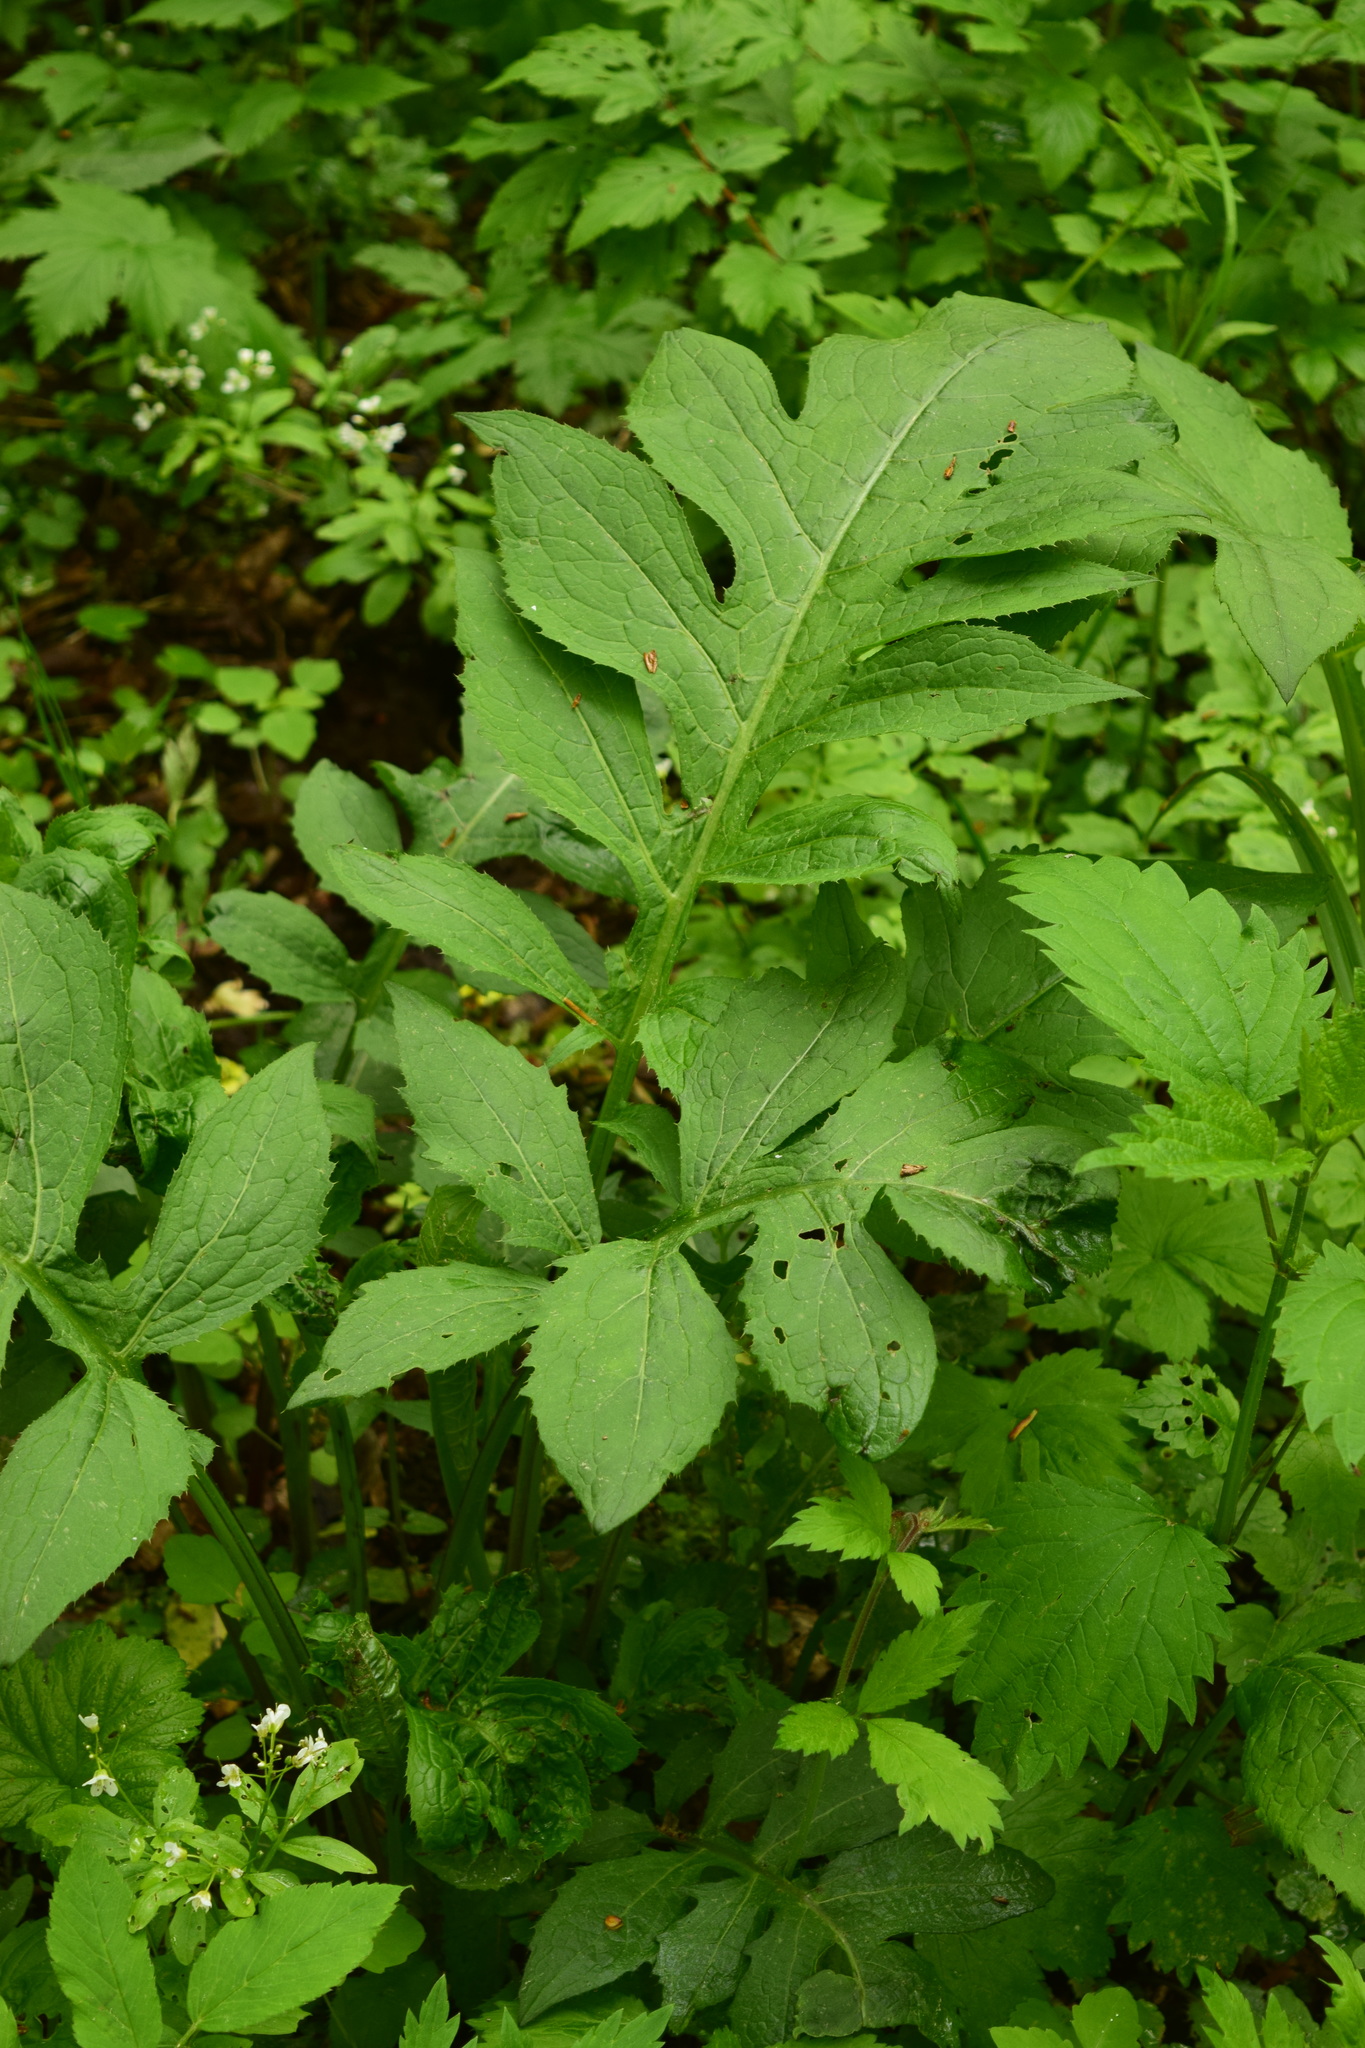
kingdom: Plantae
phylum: Tracheophyta
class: Magnoliopsida
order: Asterales
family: Asteraceae
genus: Cirsium
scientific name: Cirsium oleraceum
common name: Cabbage thistle
